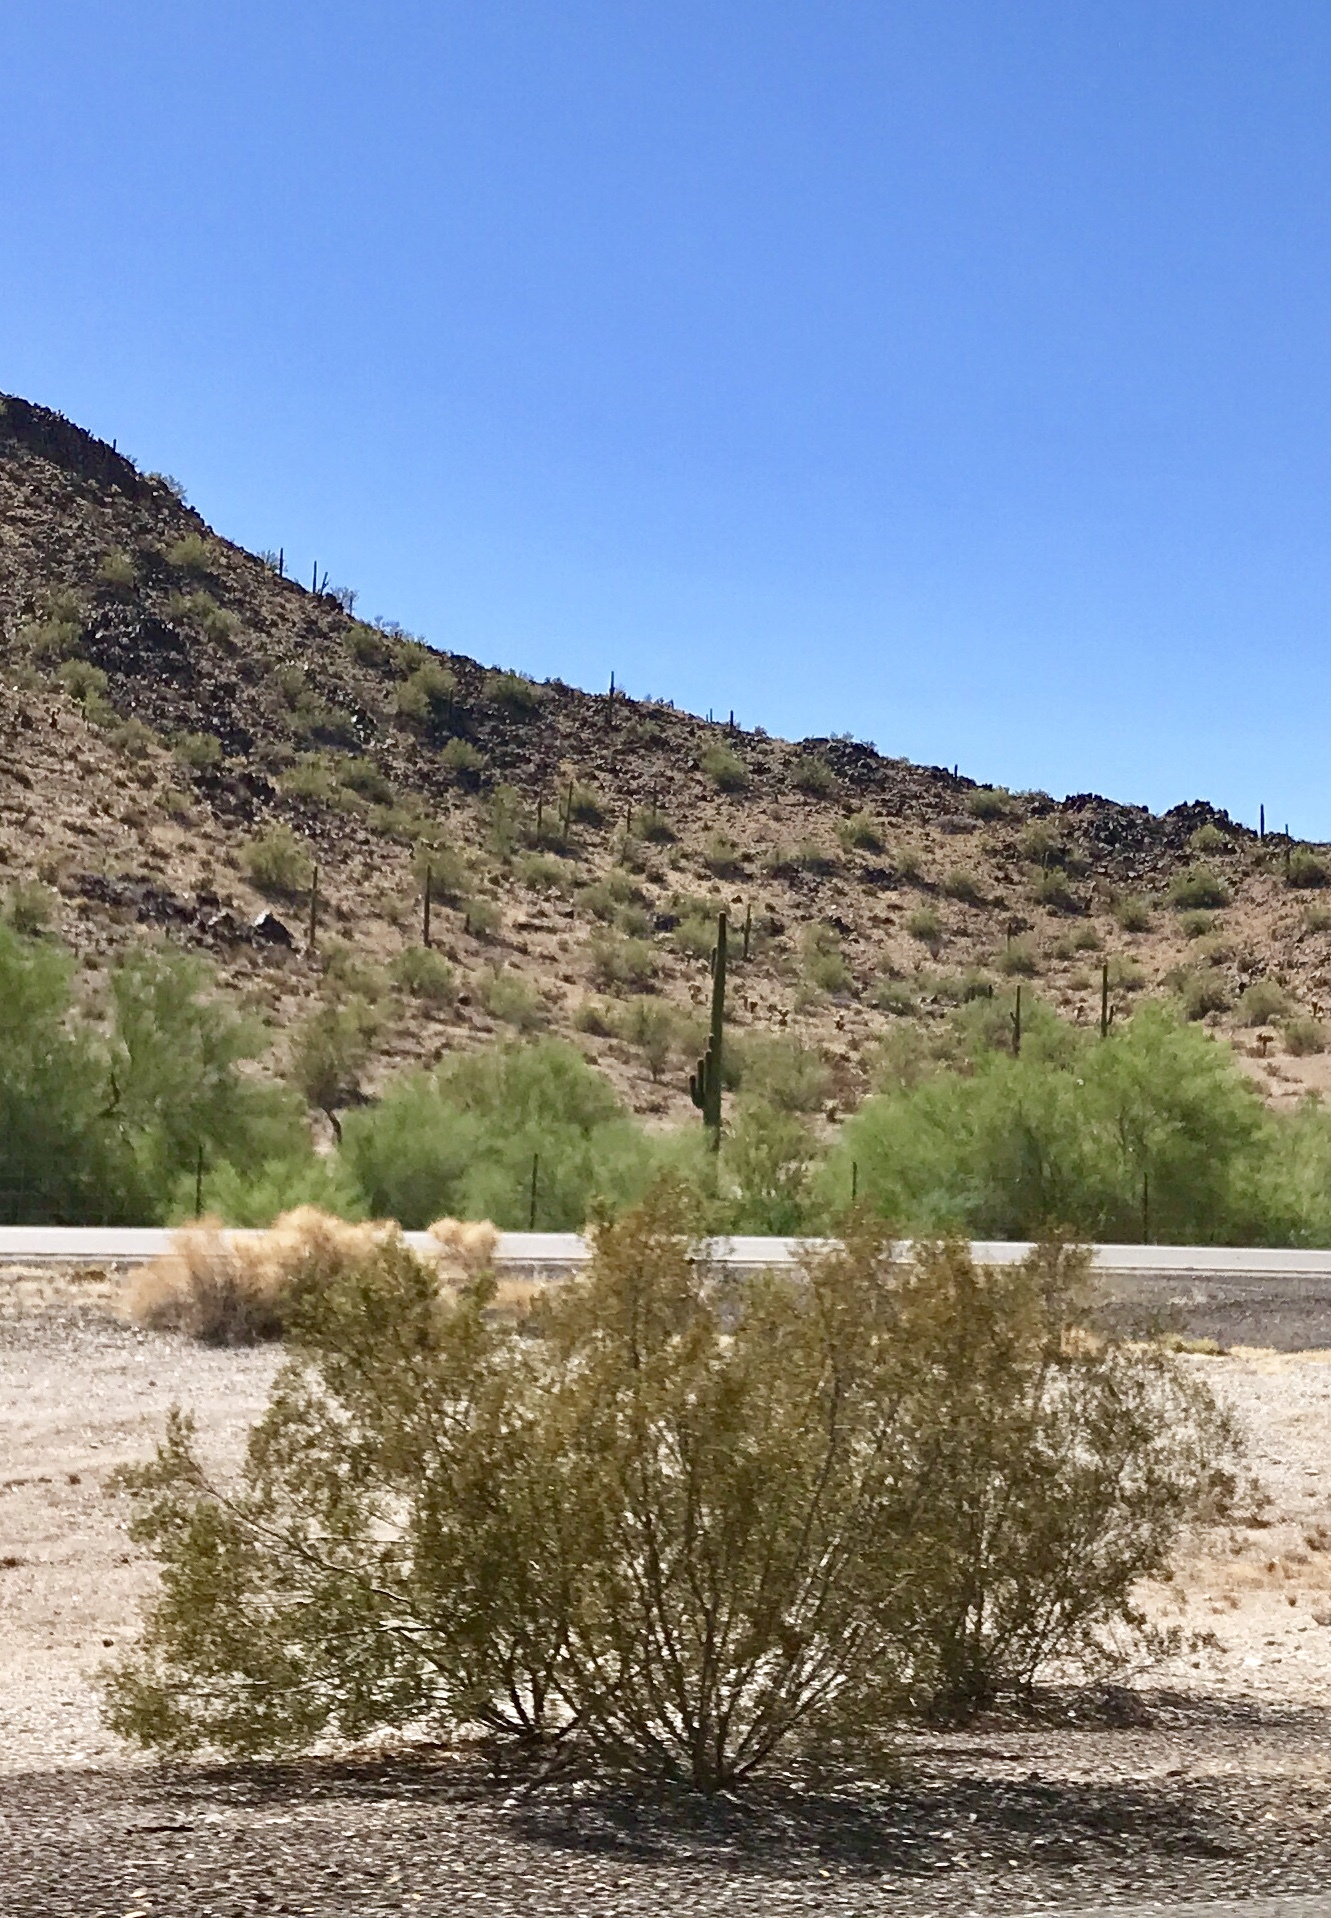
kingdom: Plantae
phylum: Tracheophyta
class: Magnoliopsida
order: Zygophyllales
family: Zygophyllaceae
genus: Larrea
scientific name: Larrea tridentata
